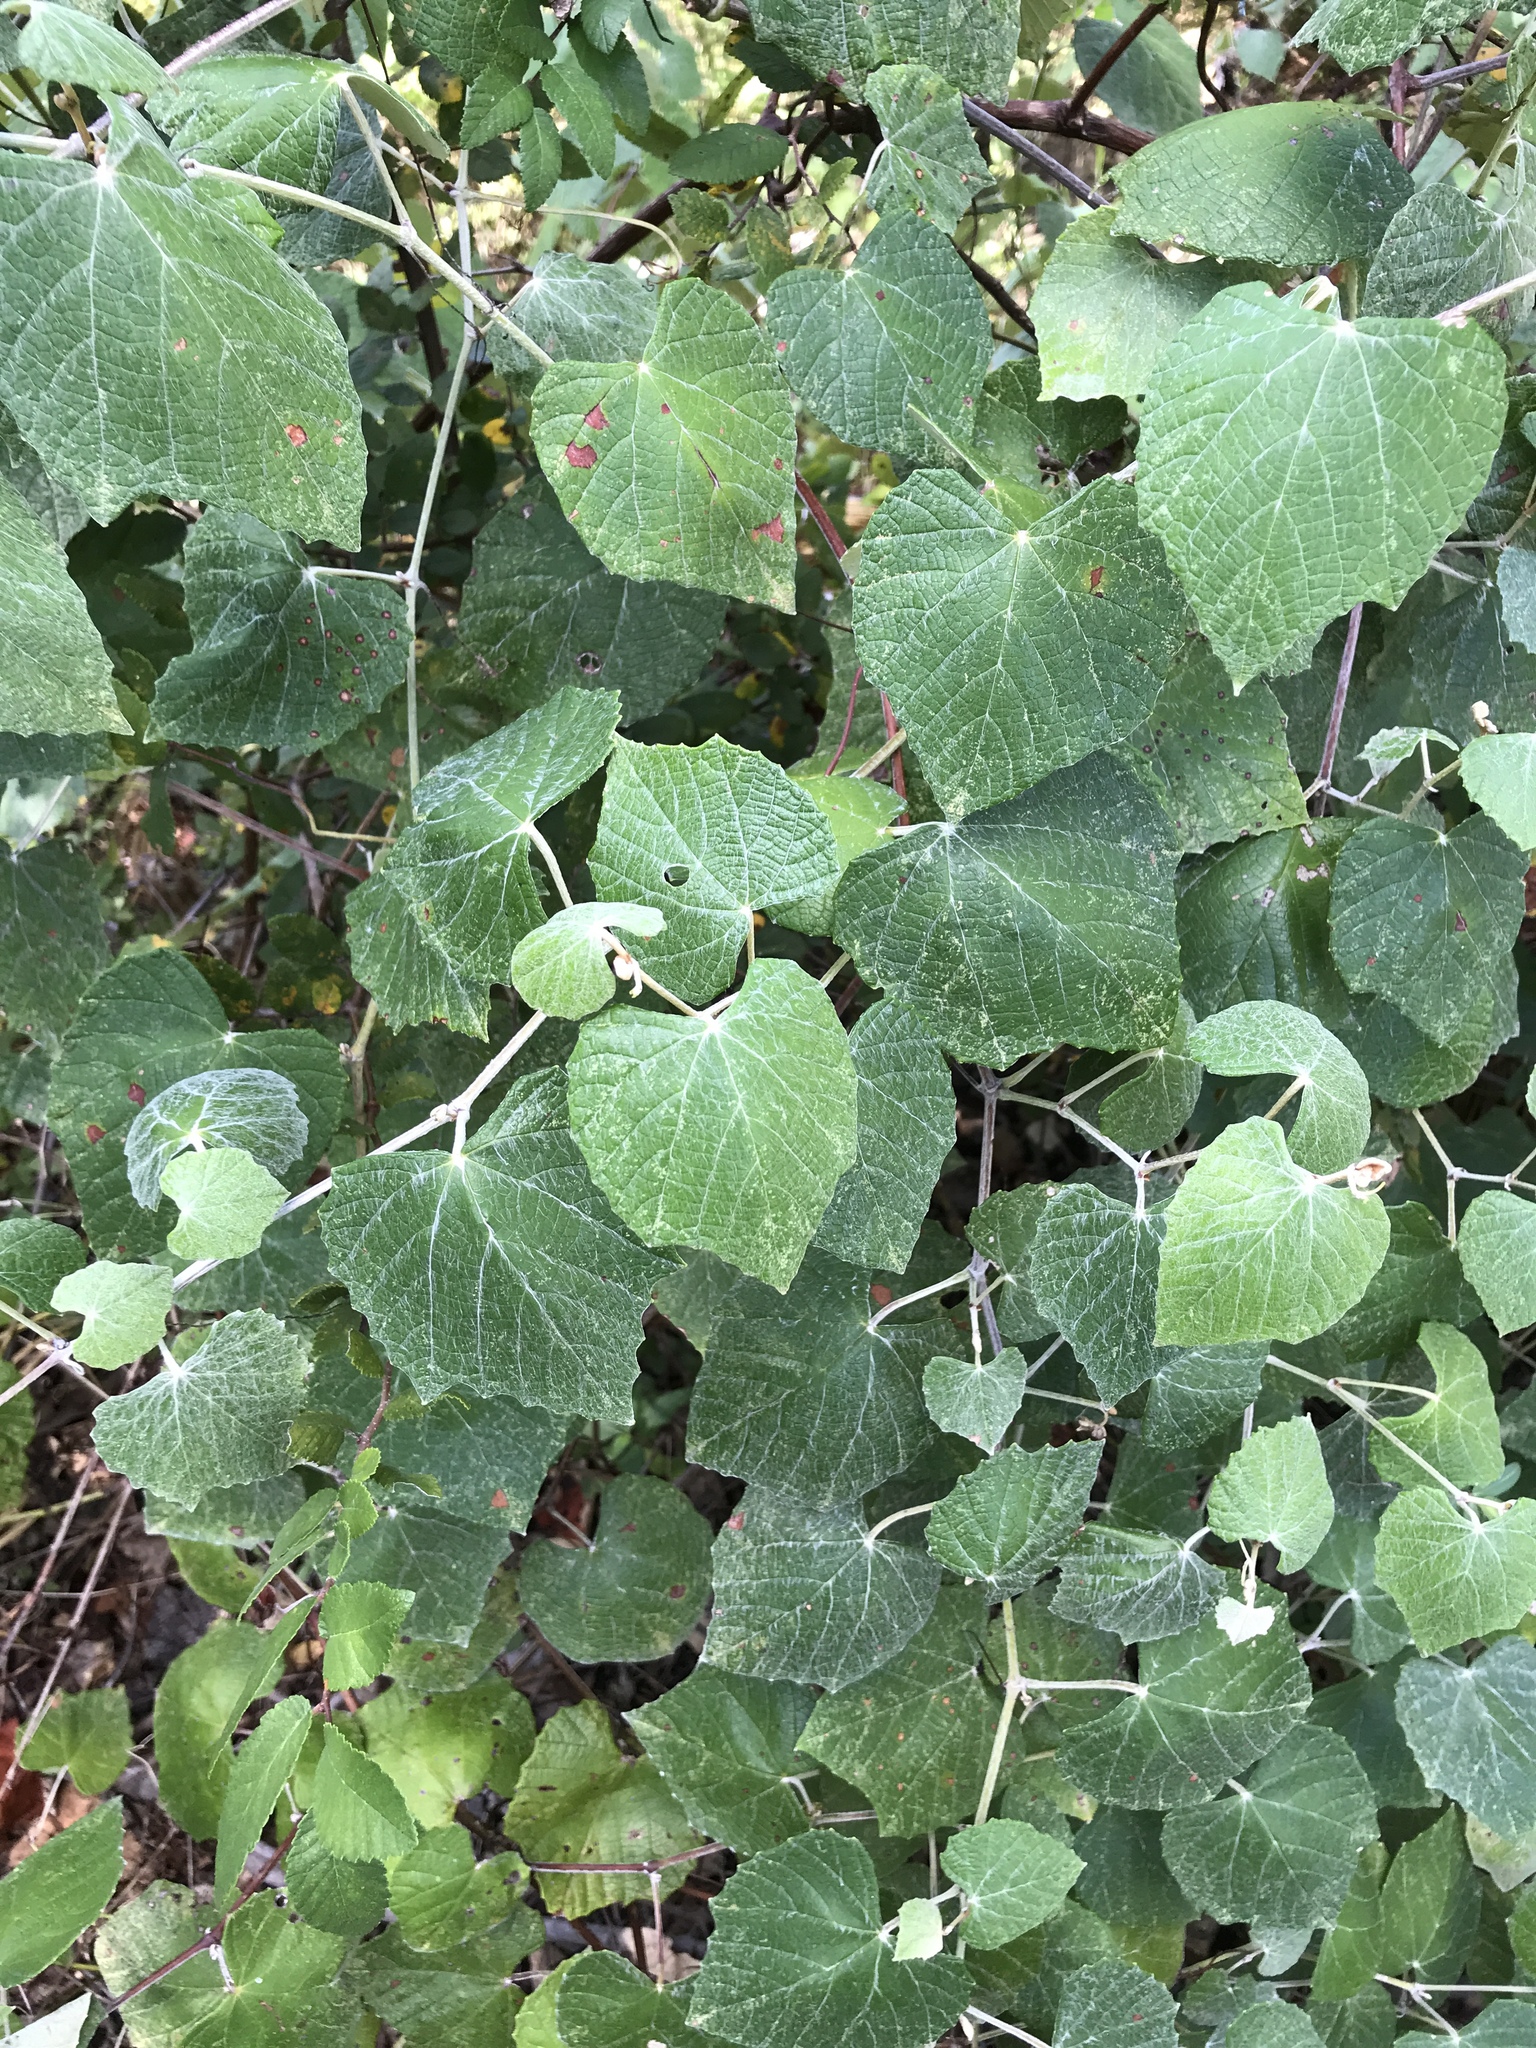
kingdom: Plantae
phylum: Tracheophyta
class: Magnoliopsida
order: Vitales
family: Vitaceae
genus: Vitis
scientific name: Vitis mustangensis
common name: Mustang grape
